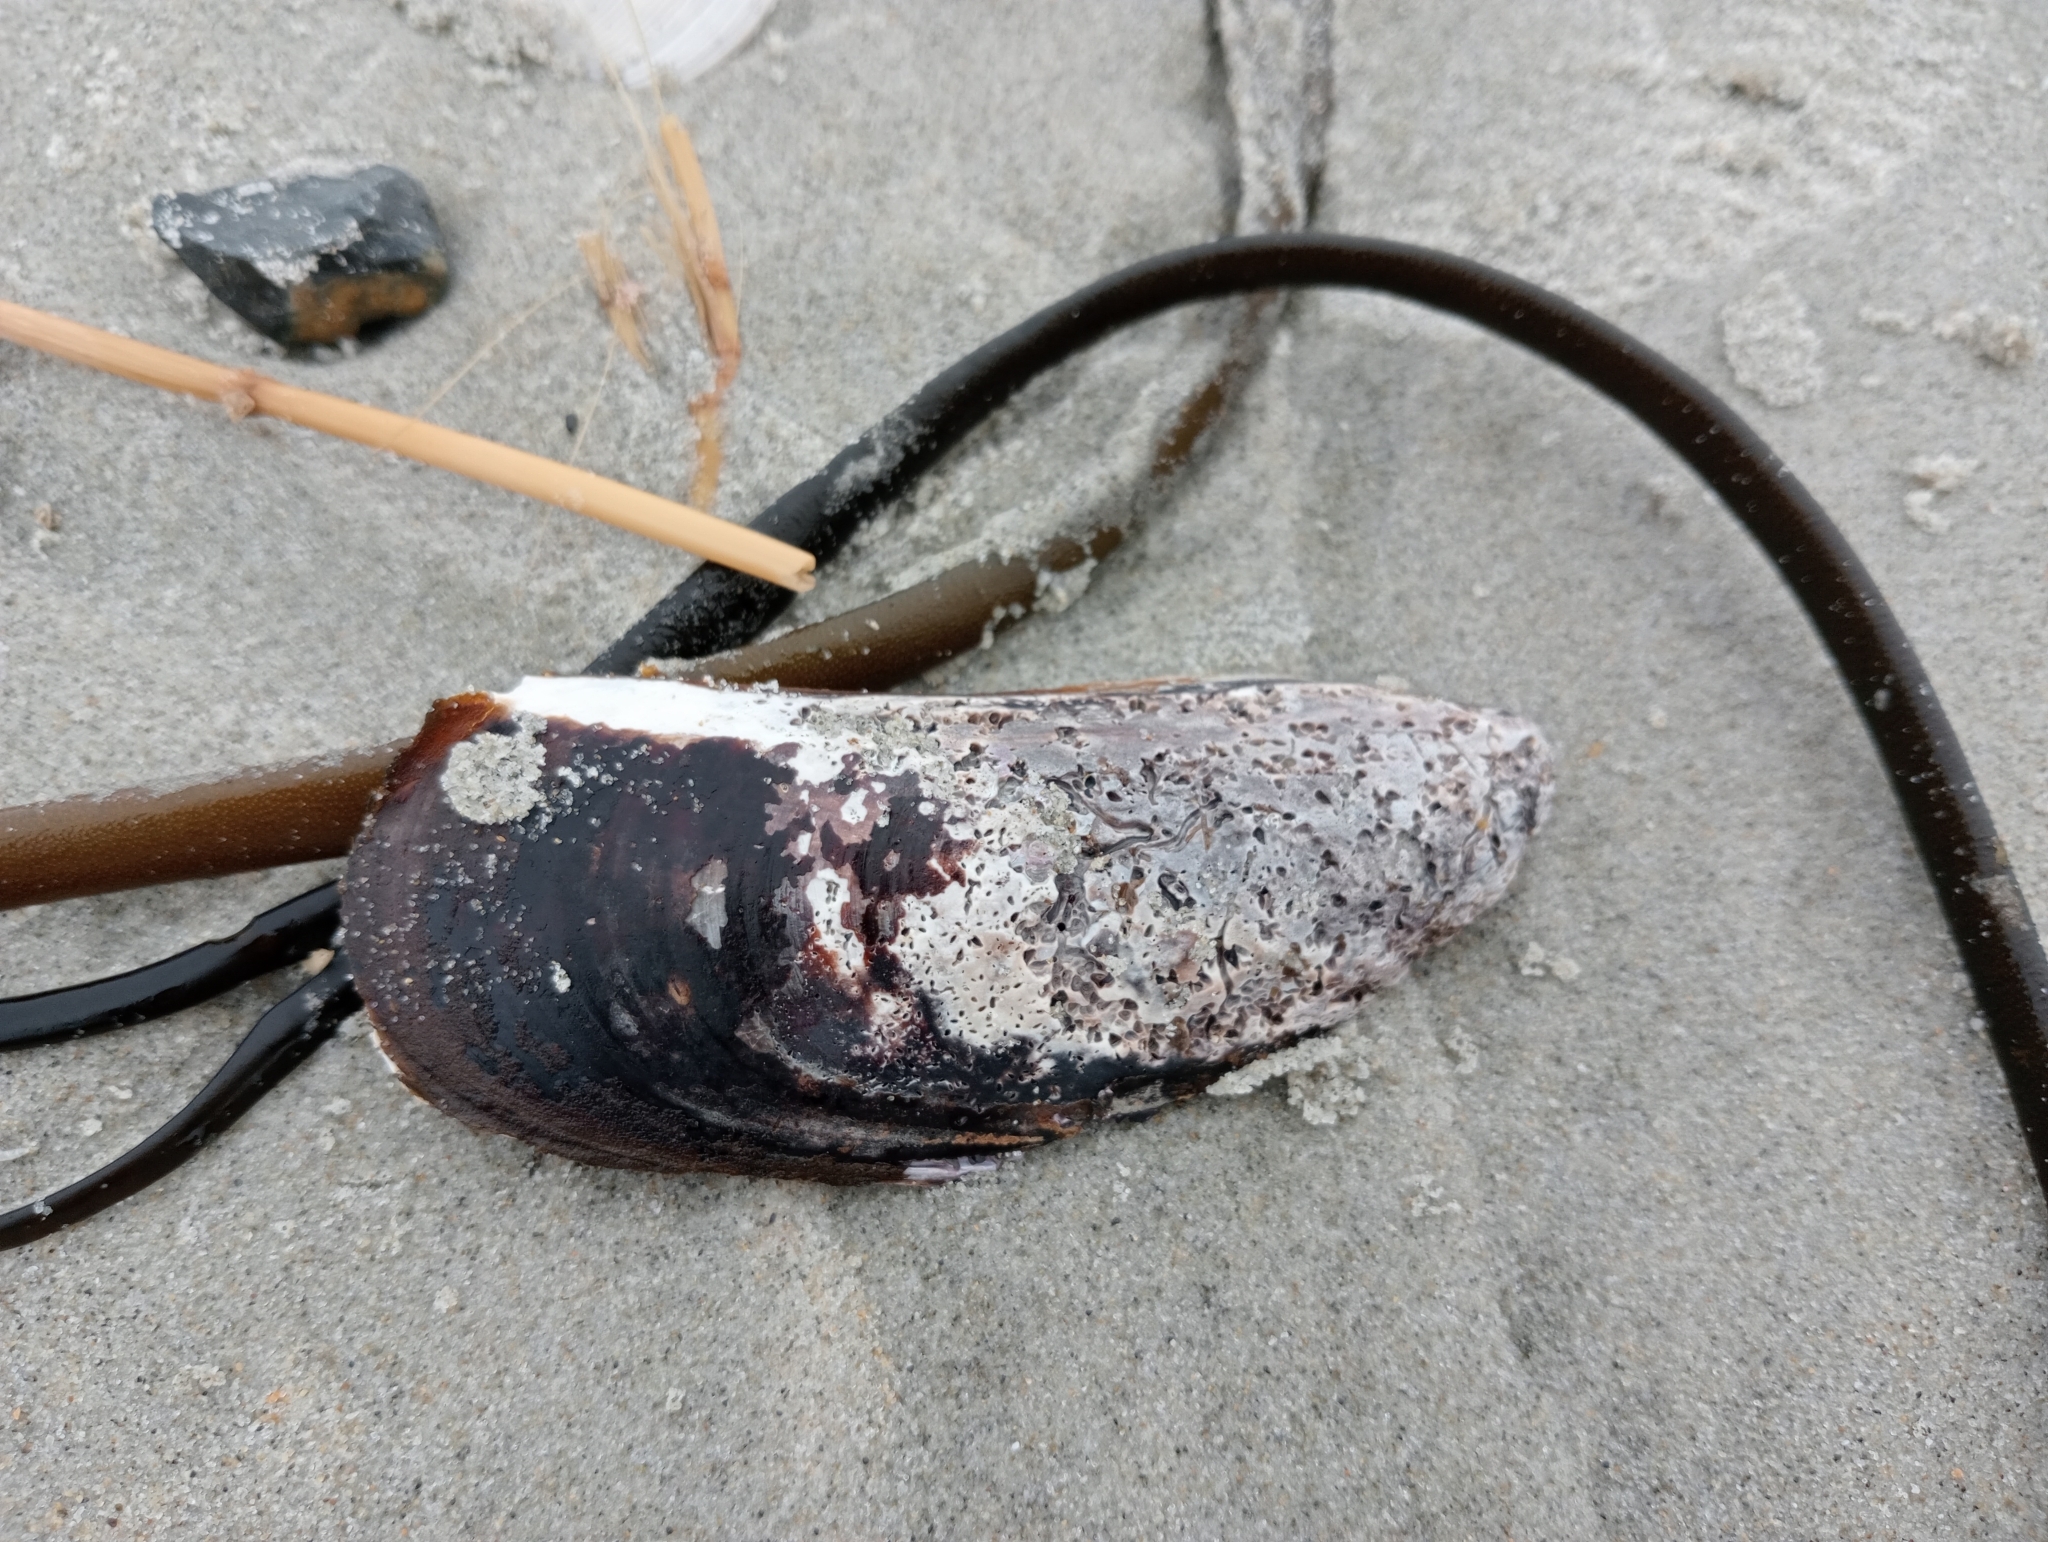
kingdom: Animalia
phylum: Mollusca
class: Bivalvia
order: Mytilida
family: Mytilidae
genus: Perna
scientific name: Perna canaliculus
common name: New zealand greenshelltm
